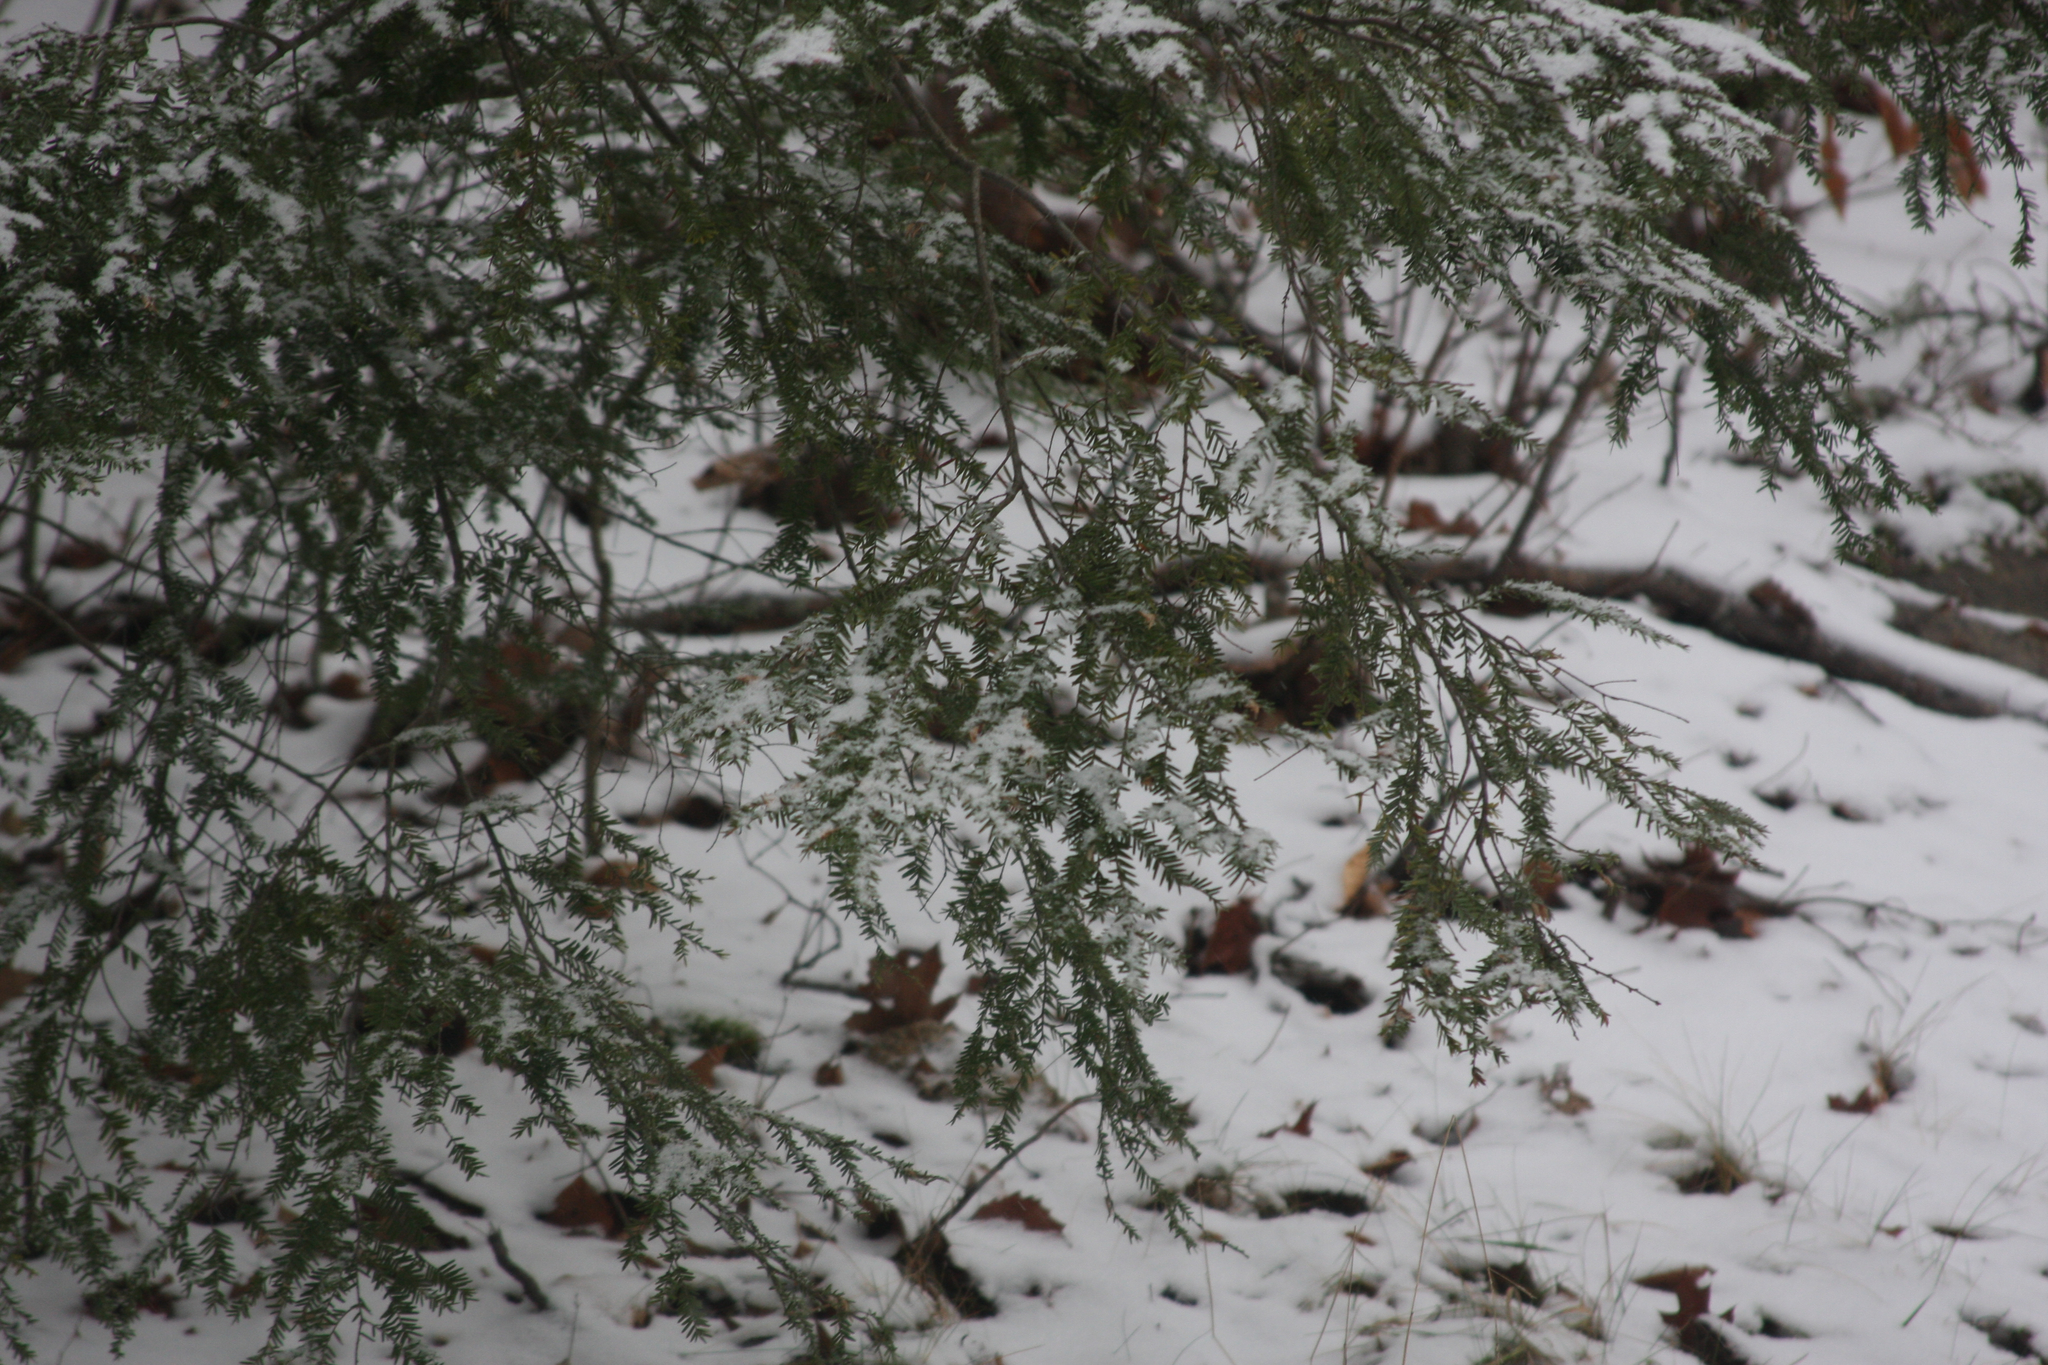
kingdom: Plantae
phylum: Tracheophyta
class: Pinopsida
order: Pinales
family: Pinaceae
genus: Tsuga
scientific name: Tsuga canadensis
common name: Eastern hemlock
